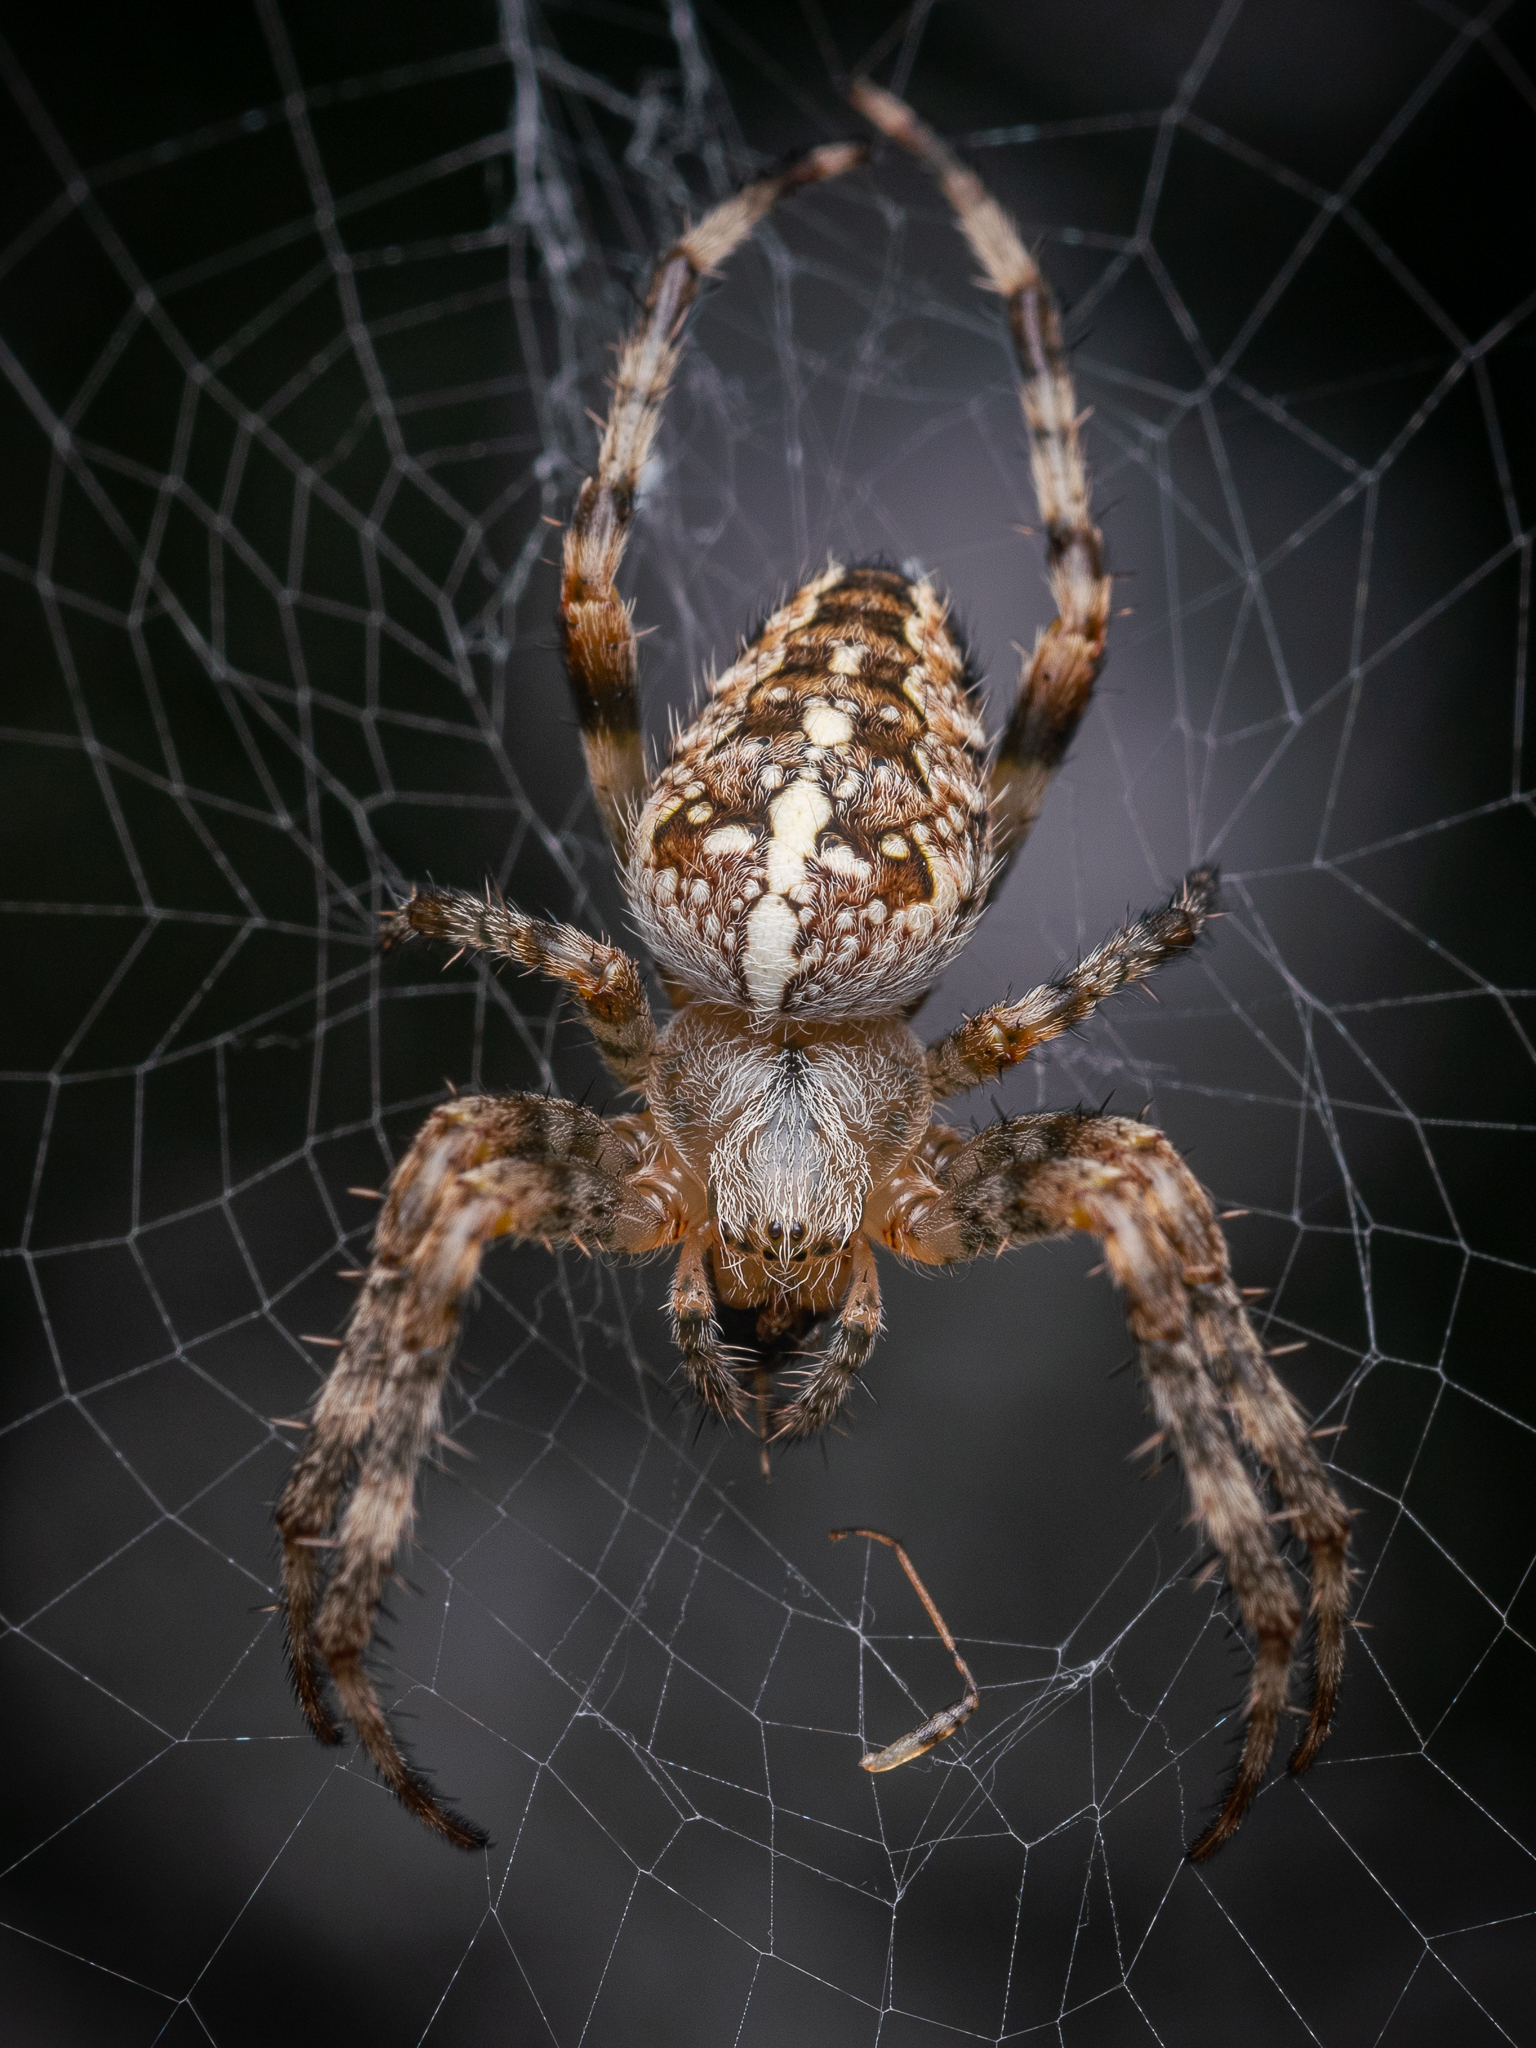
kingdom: Animalia
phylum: Arthropoda
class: Arachnida
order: Araneae
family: Araneidae
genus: Araneus
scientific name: Araneus diadematus
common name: Cross orbweaver
